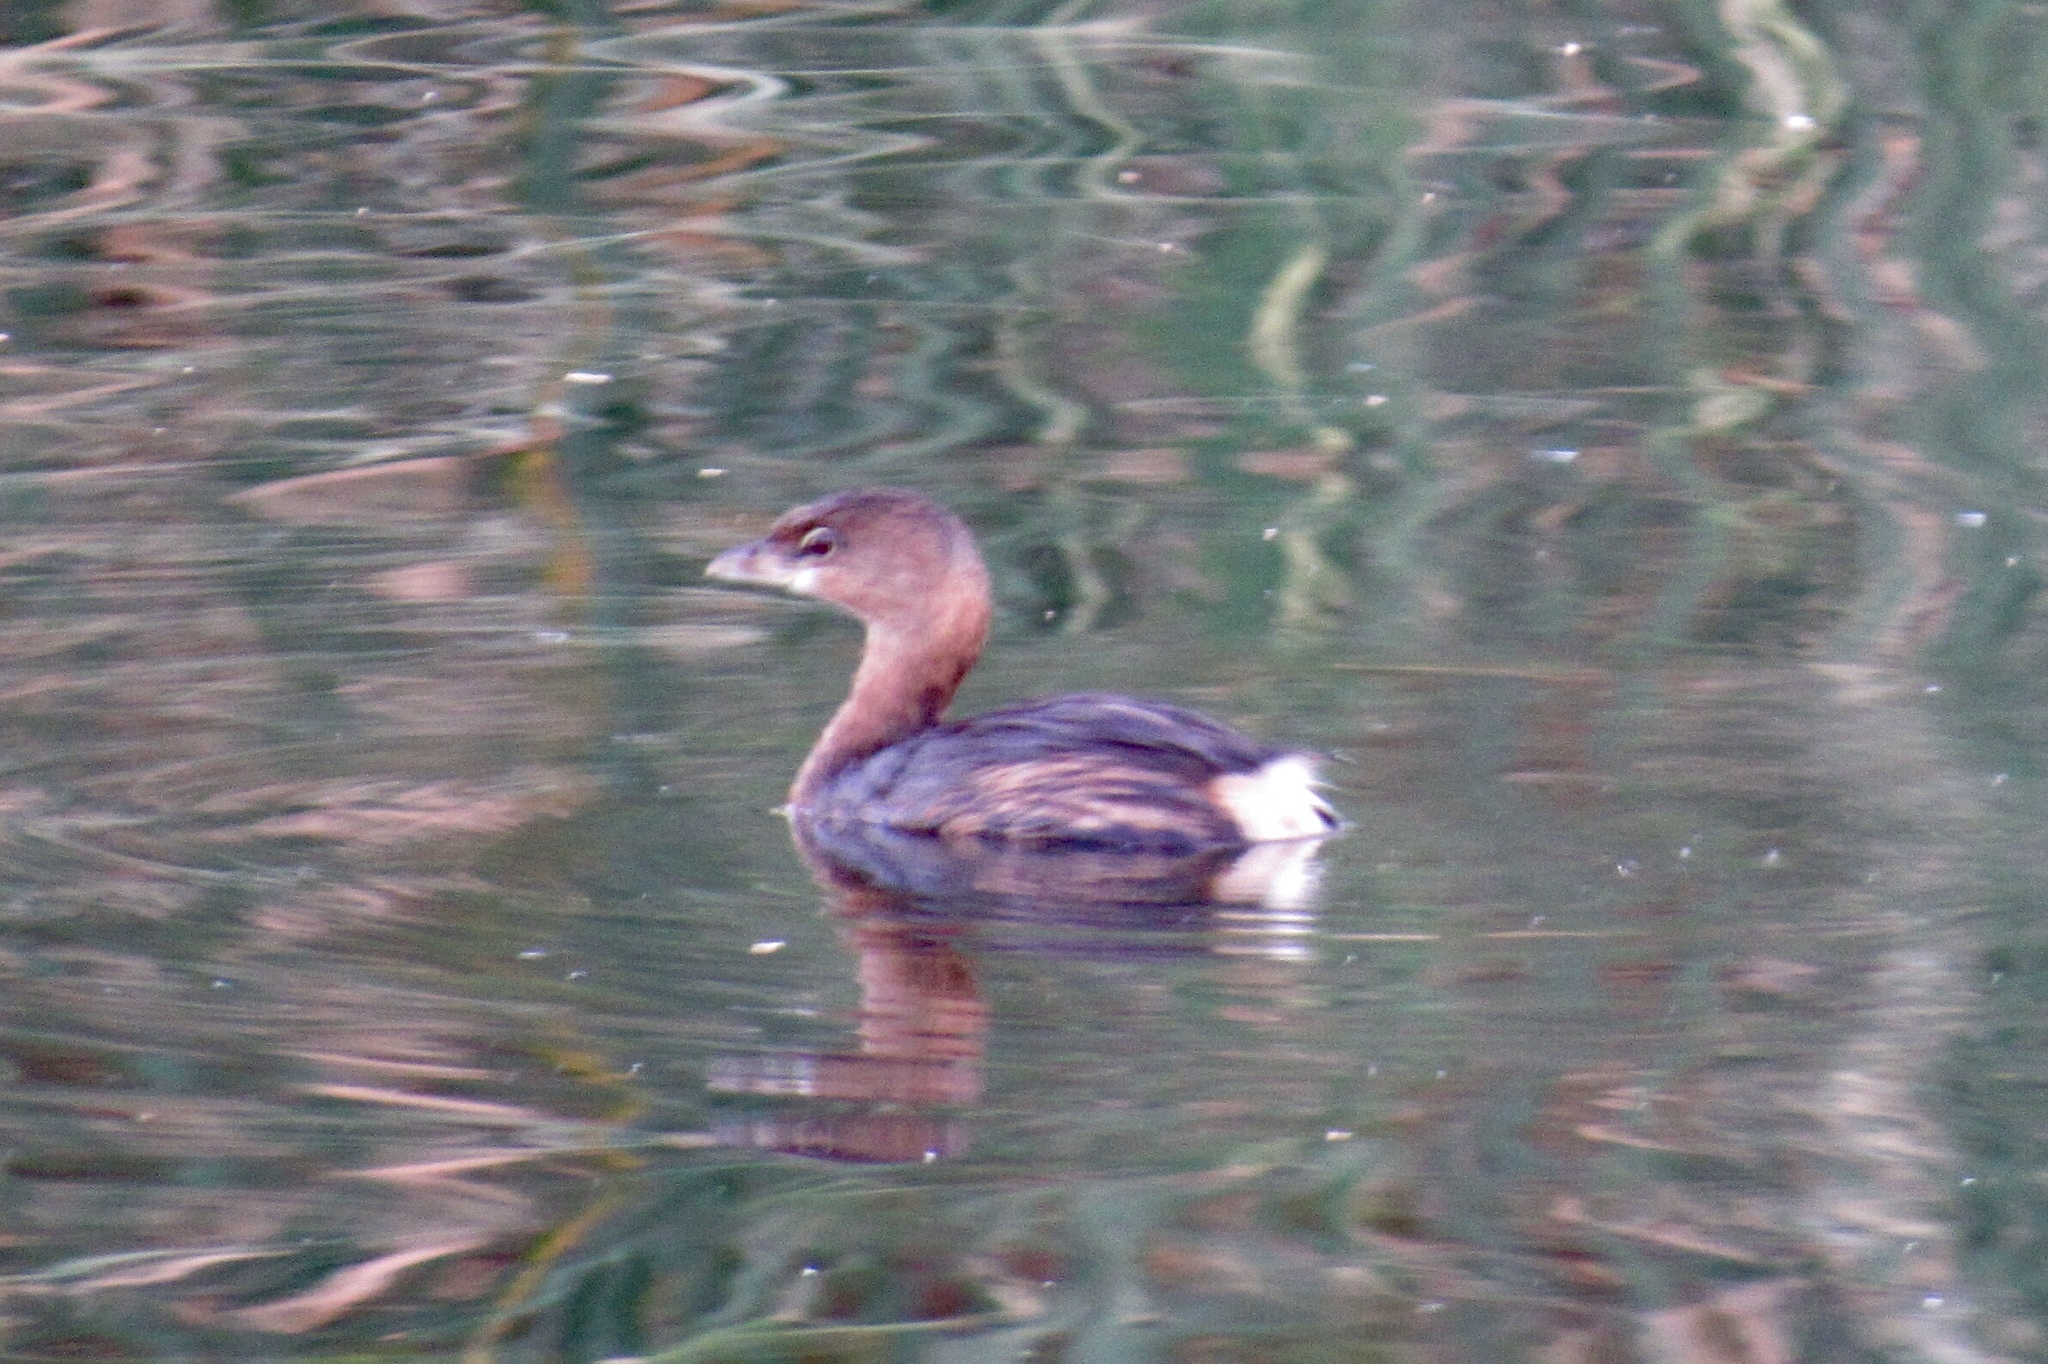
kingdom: Animalia
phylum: Chordata
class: Aves
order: Podicipediformes
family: Podicipedidae
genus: Podilymbus
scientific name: Podilymbus podiceps
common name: Pied-billed grebe
